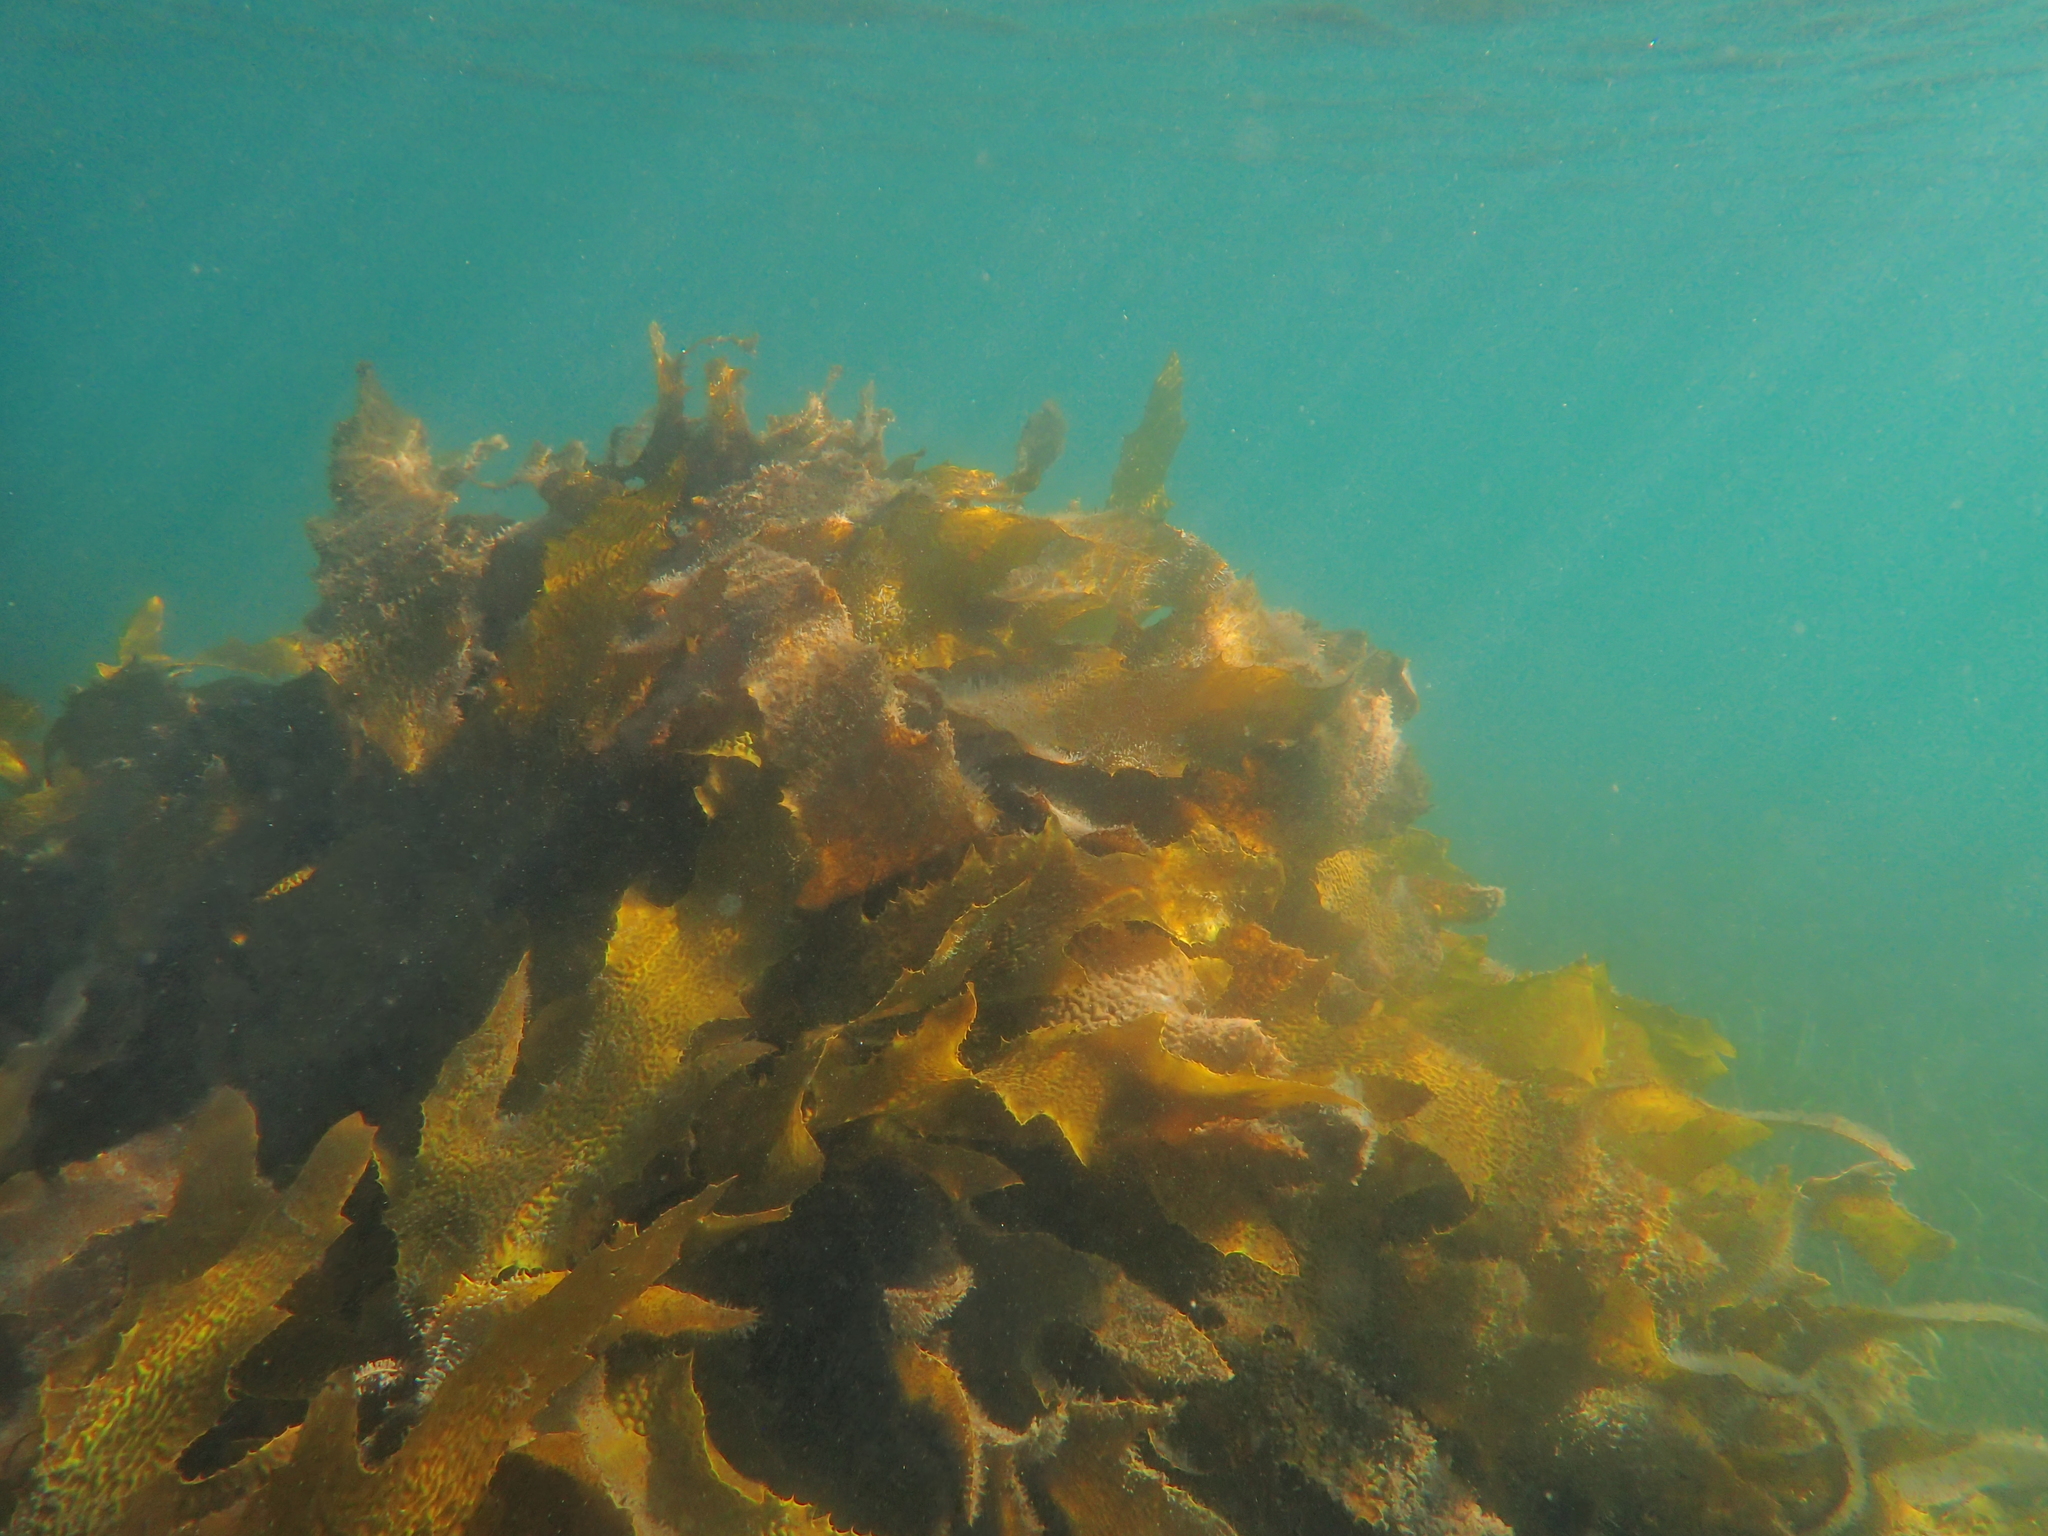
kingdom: Chromista
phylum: Ochrophyta
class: Phaeophyceae
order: Laminariales
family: Lessoniaceae
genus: Ecklonia
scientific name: Ecklonia radiata
